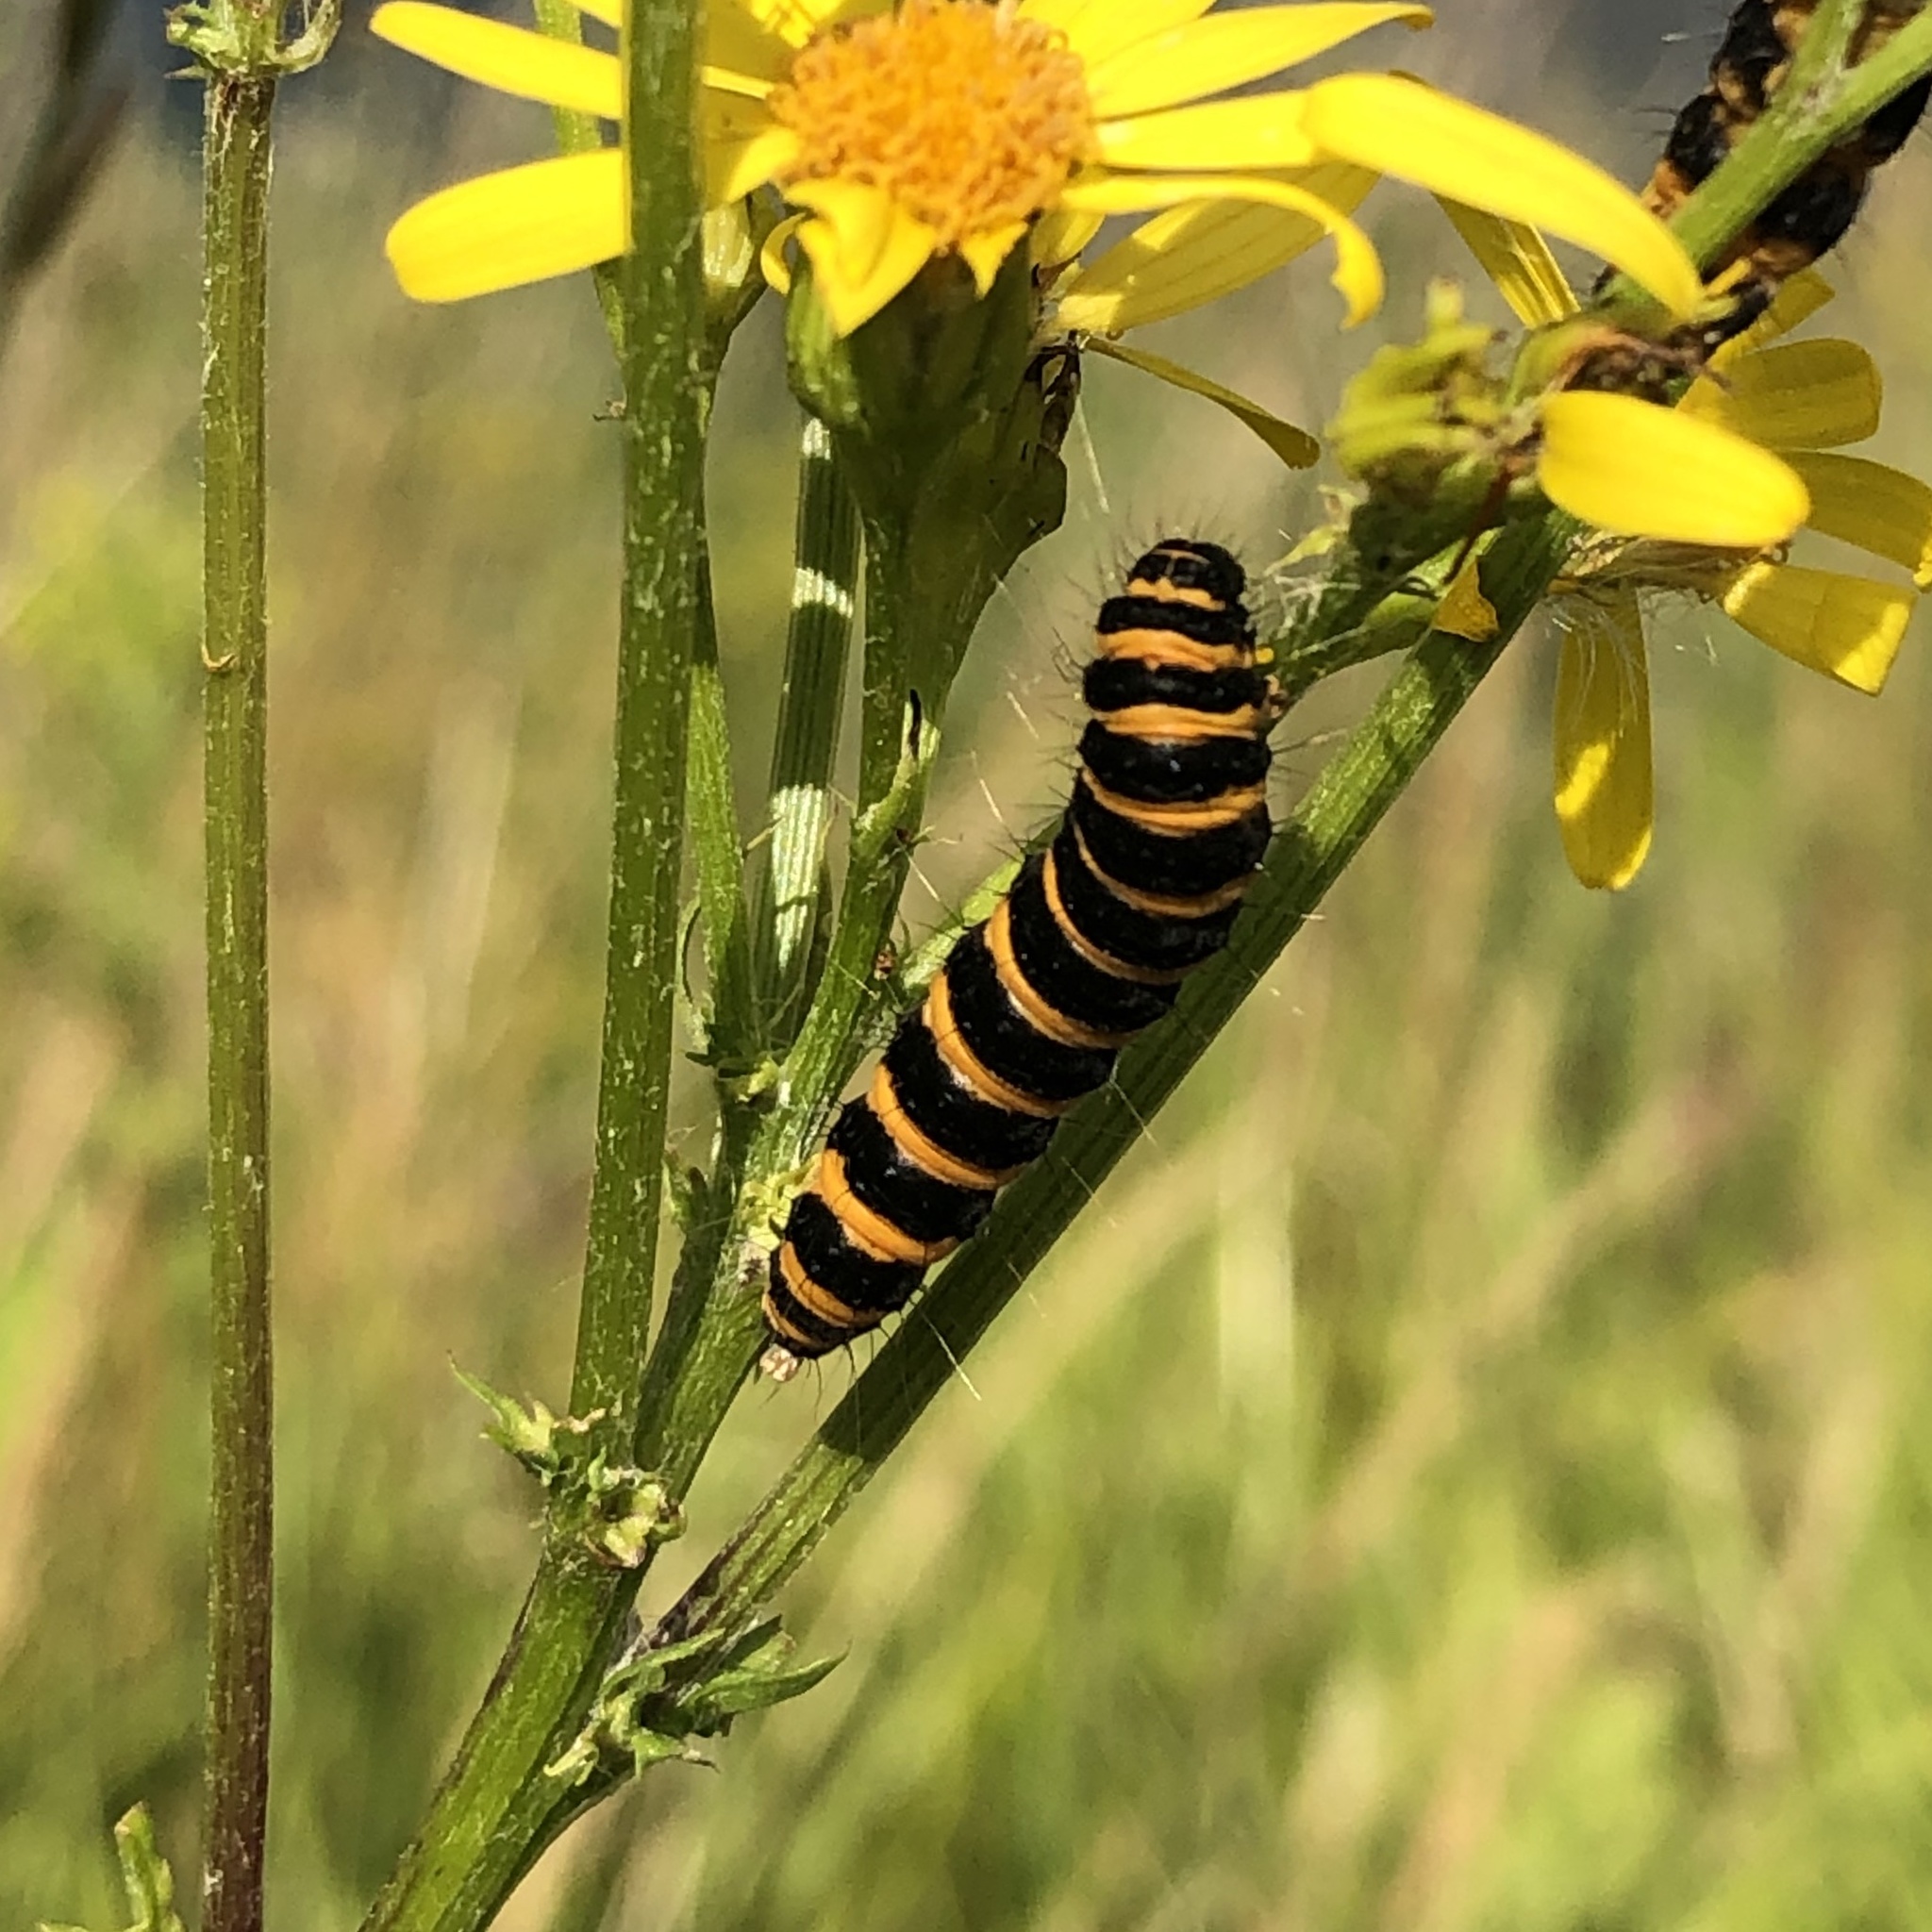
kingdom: Animalia
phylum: Arthropoda
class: Insecta
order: Lepidoptera
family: Erebidae
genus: Tyria
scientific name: Tyria jacobaeae
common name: Cinnabar
